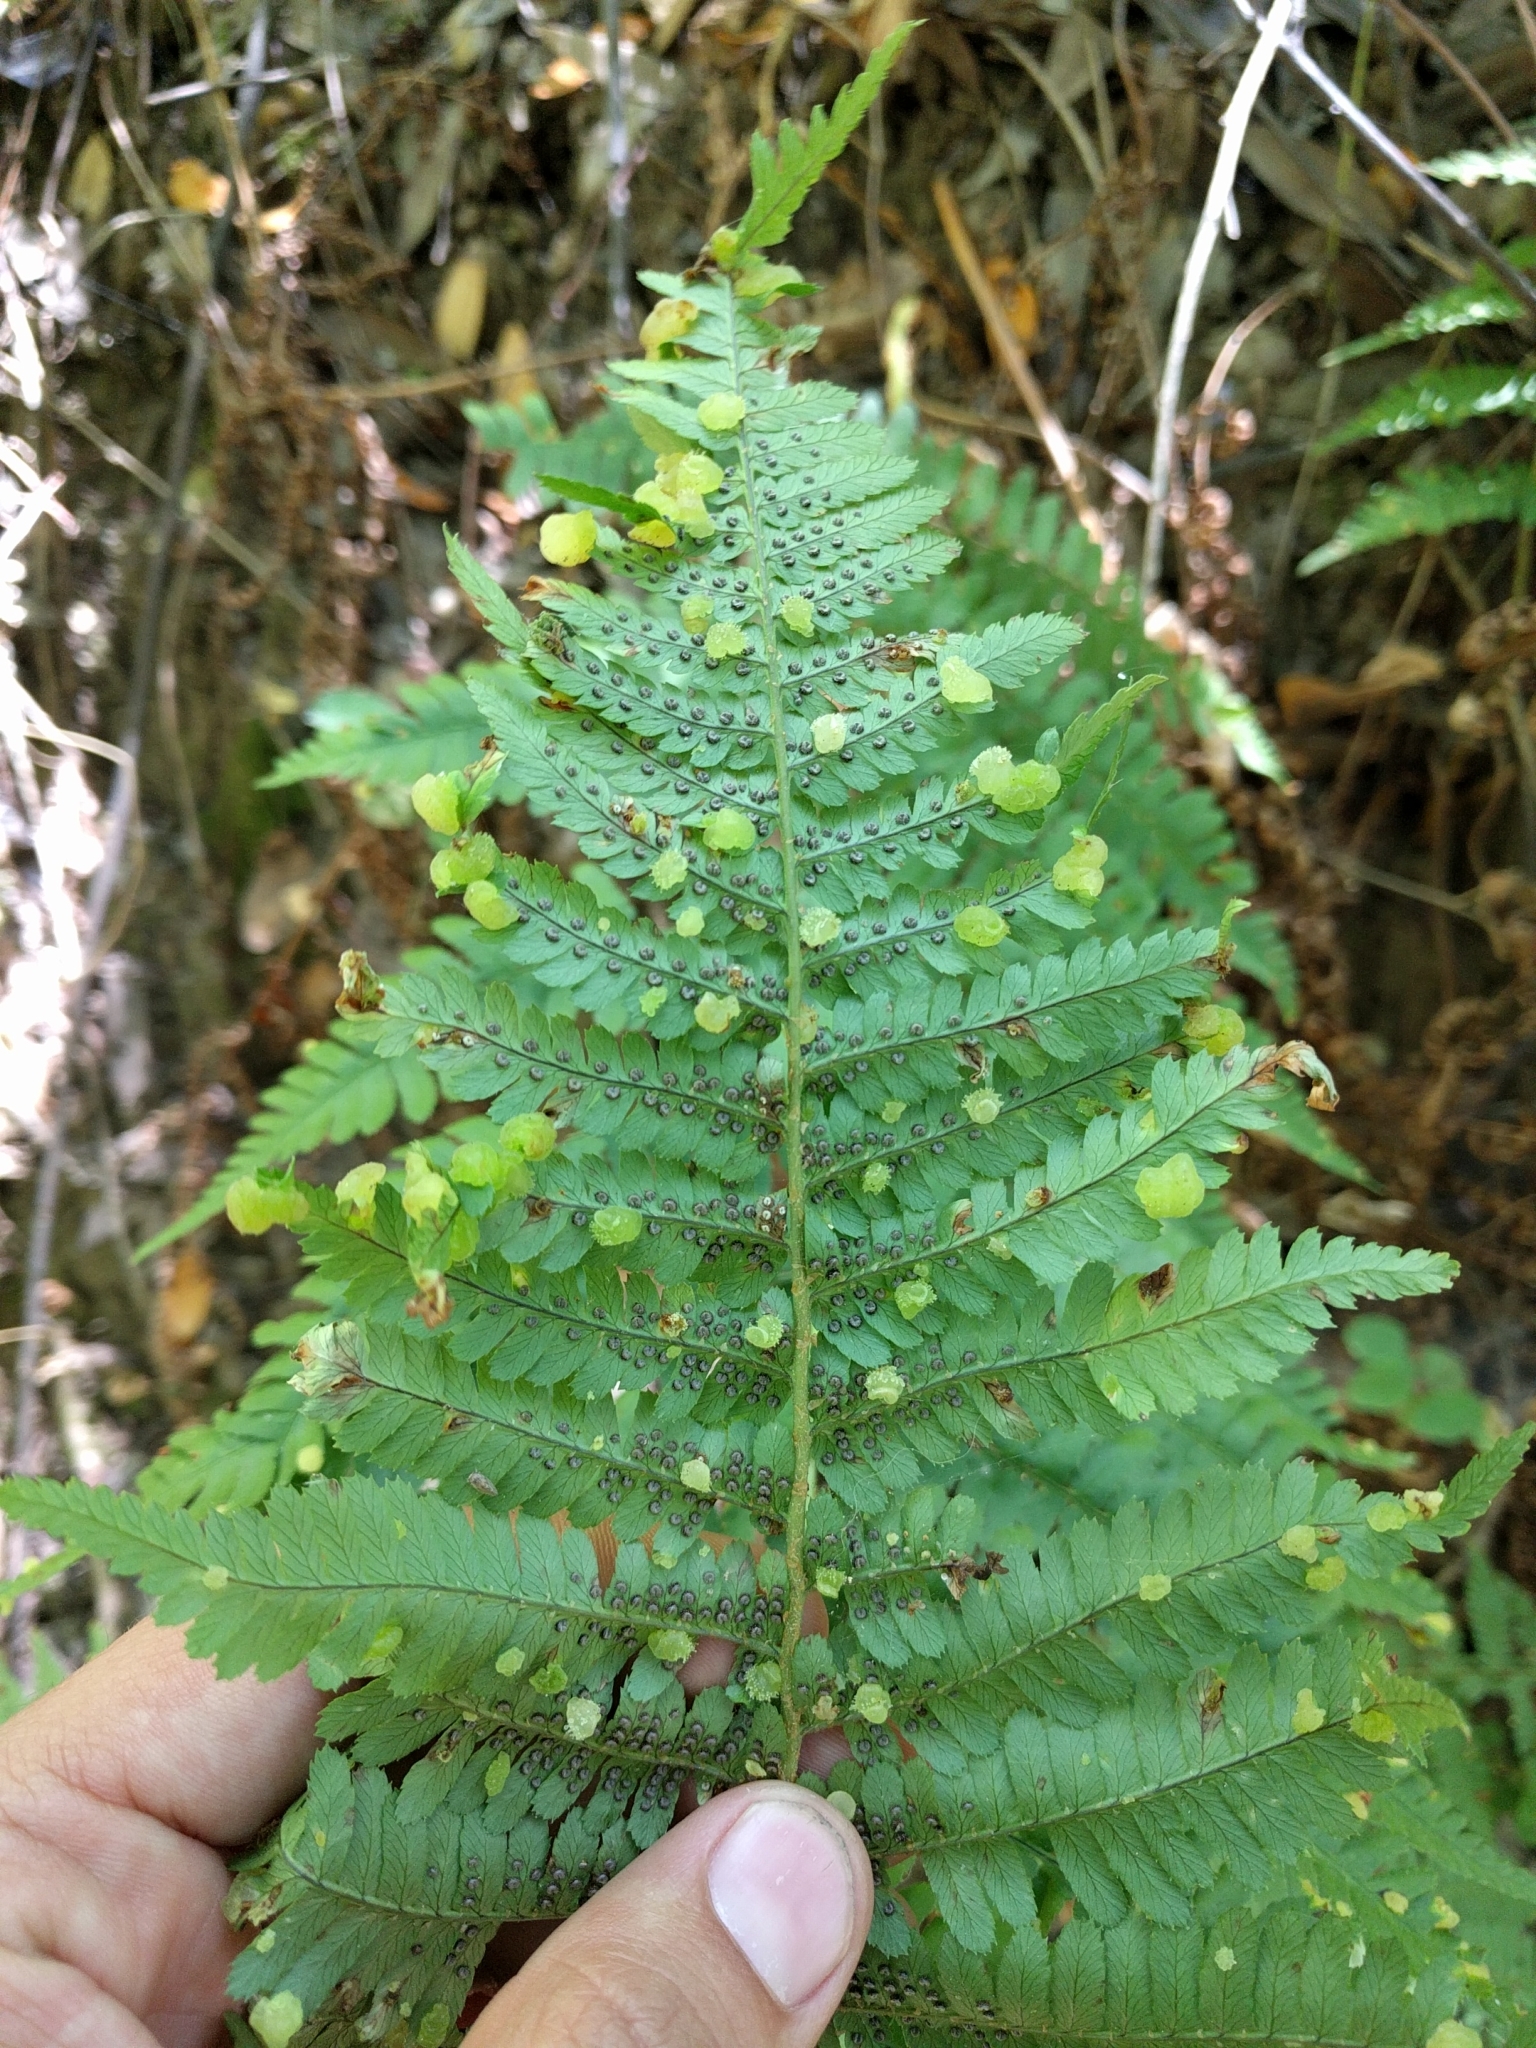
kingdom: Fungi
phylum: Ascomycota
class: Taphrinomycetes
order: Taphrinales
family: Taphrinaceae
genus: Taphrina
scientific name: Taphrina californica
